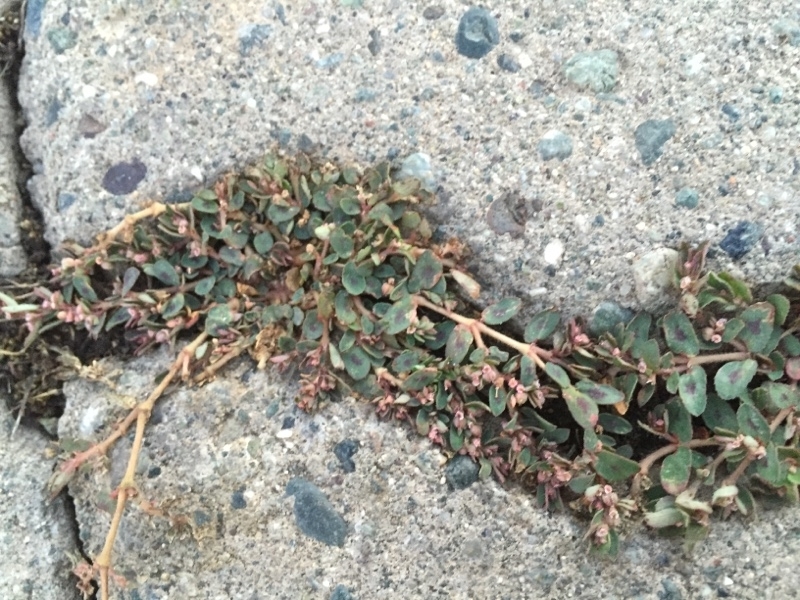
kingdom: Plantae
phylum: Tracheophyta
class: Magnoliopsida
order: Malpighiales
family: Euphorbiaceae
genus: Euphorbia
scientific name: Euphorbia maculata
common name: Spotted spurge
